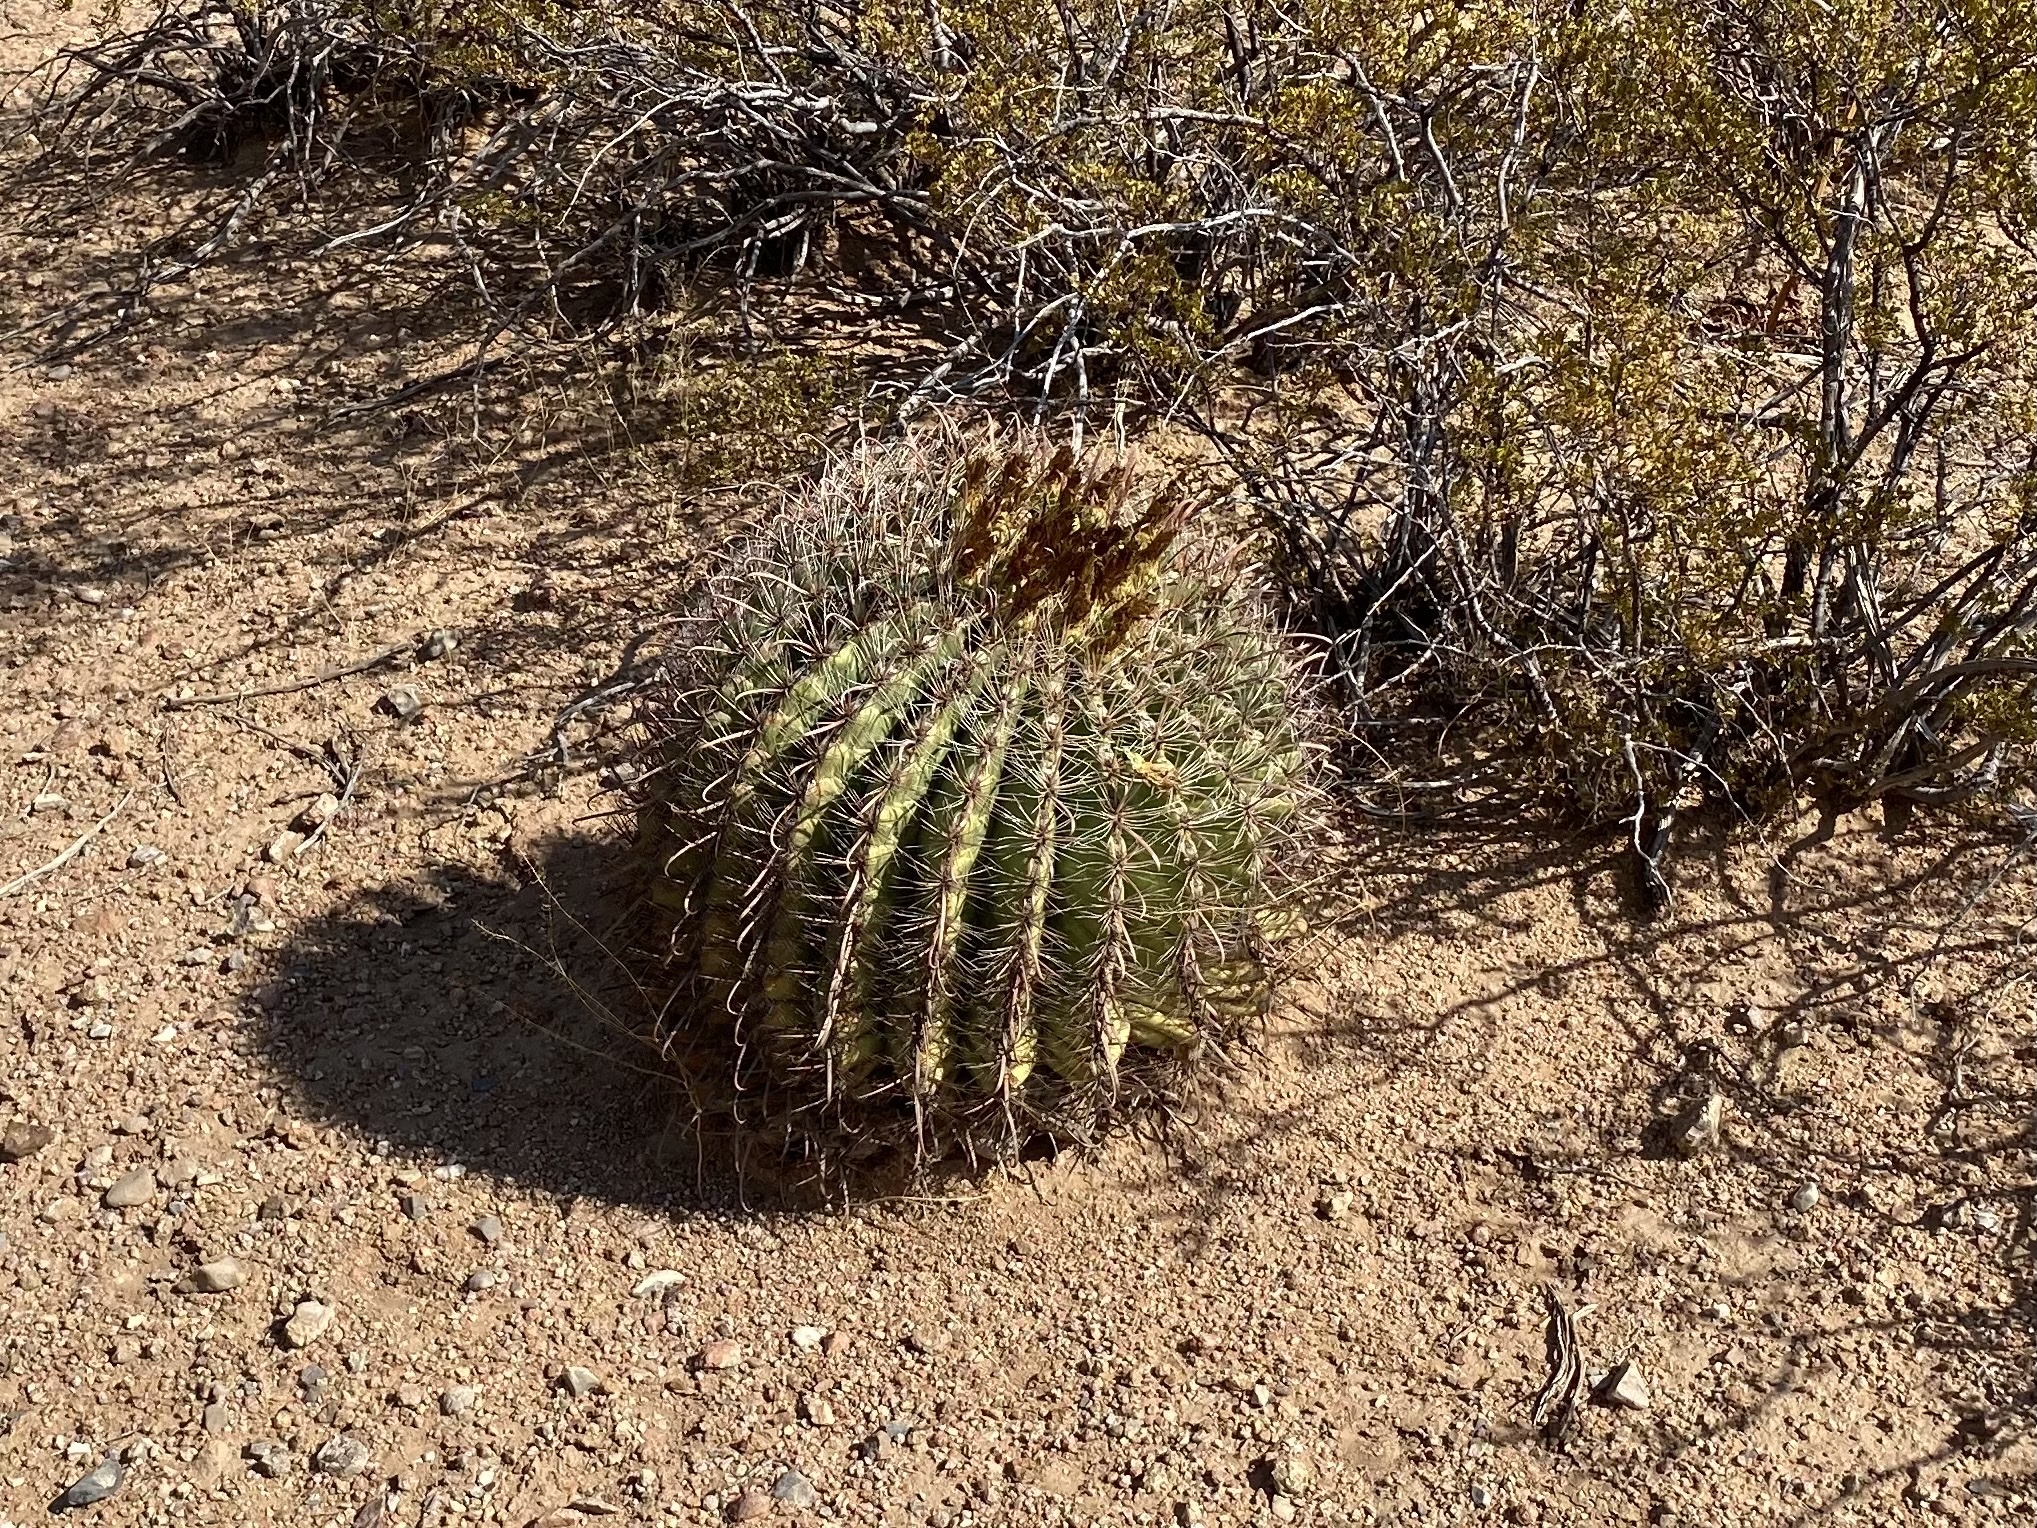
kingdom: Plantae
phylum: Tracheophyta
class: Magnoliopsida
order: Caryophyllales
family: Cactaceae
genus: Ferocactus
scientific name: Ferocactus wislizeni
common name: Candy barrel cactus
